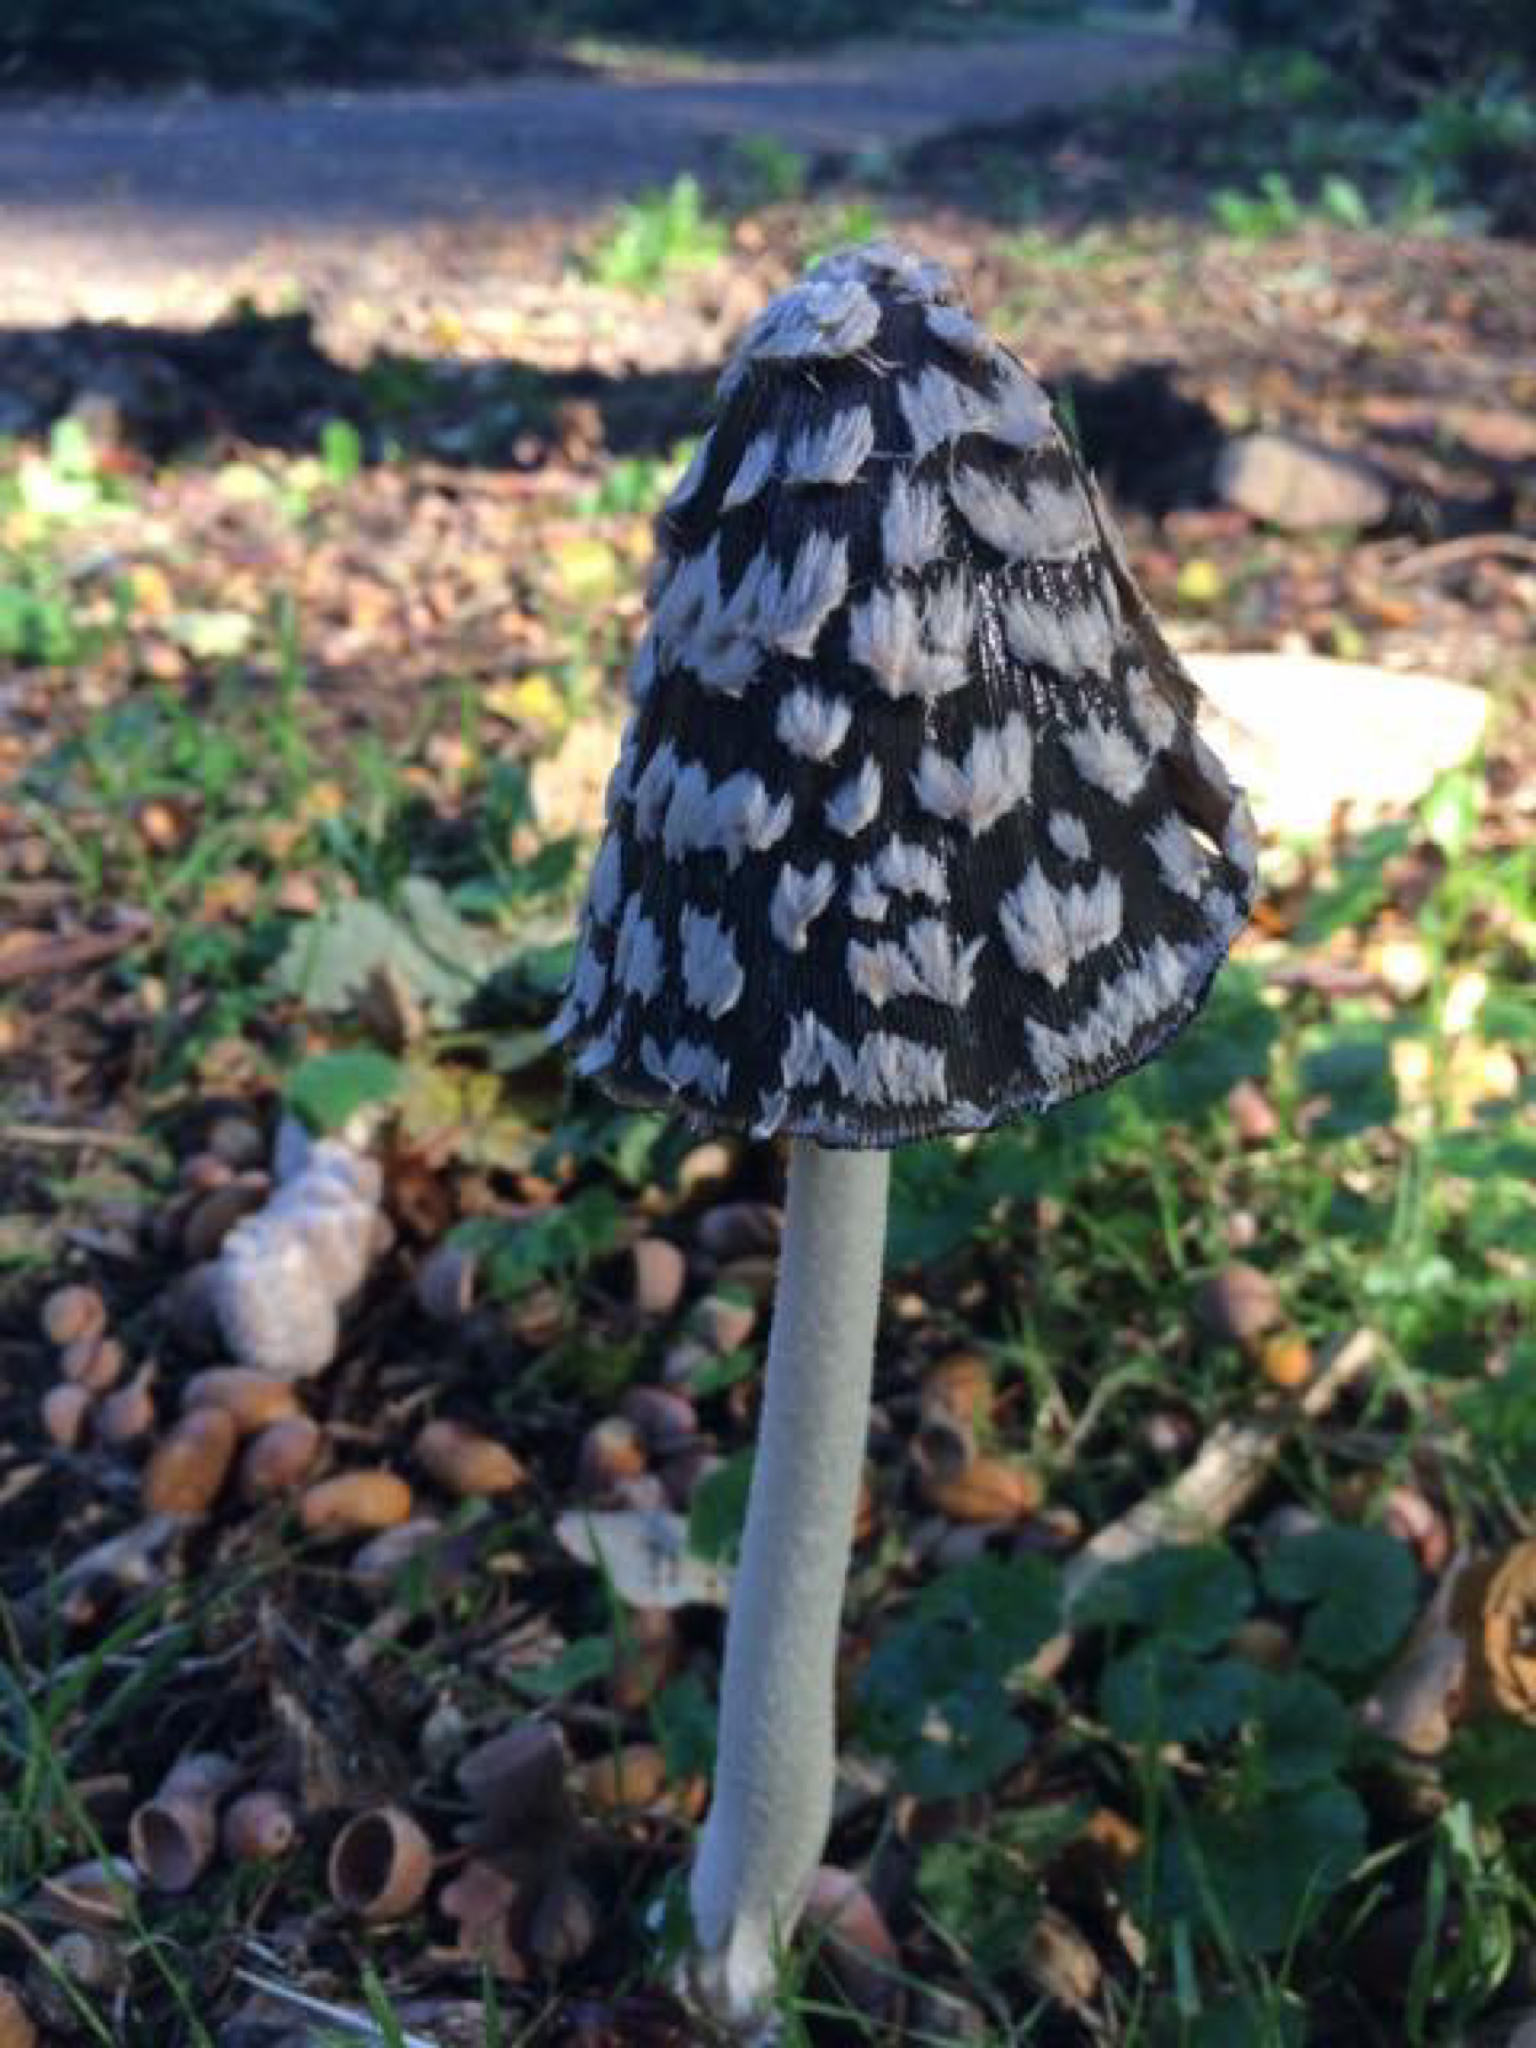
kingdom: Fungi
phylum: Basidiomycota
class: Agaricomycetes
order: Agaricales
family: Psathyrellaceae
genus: Coprinopsis
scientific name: Coprinopsis picacea
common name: Magpie inkcap
